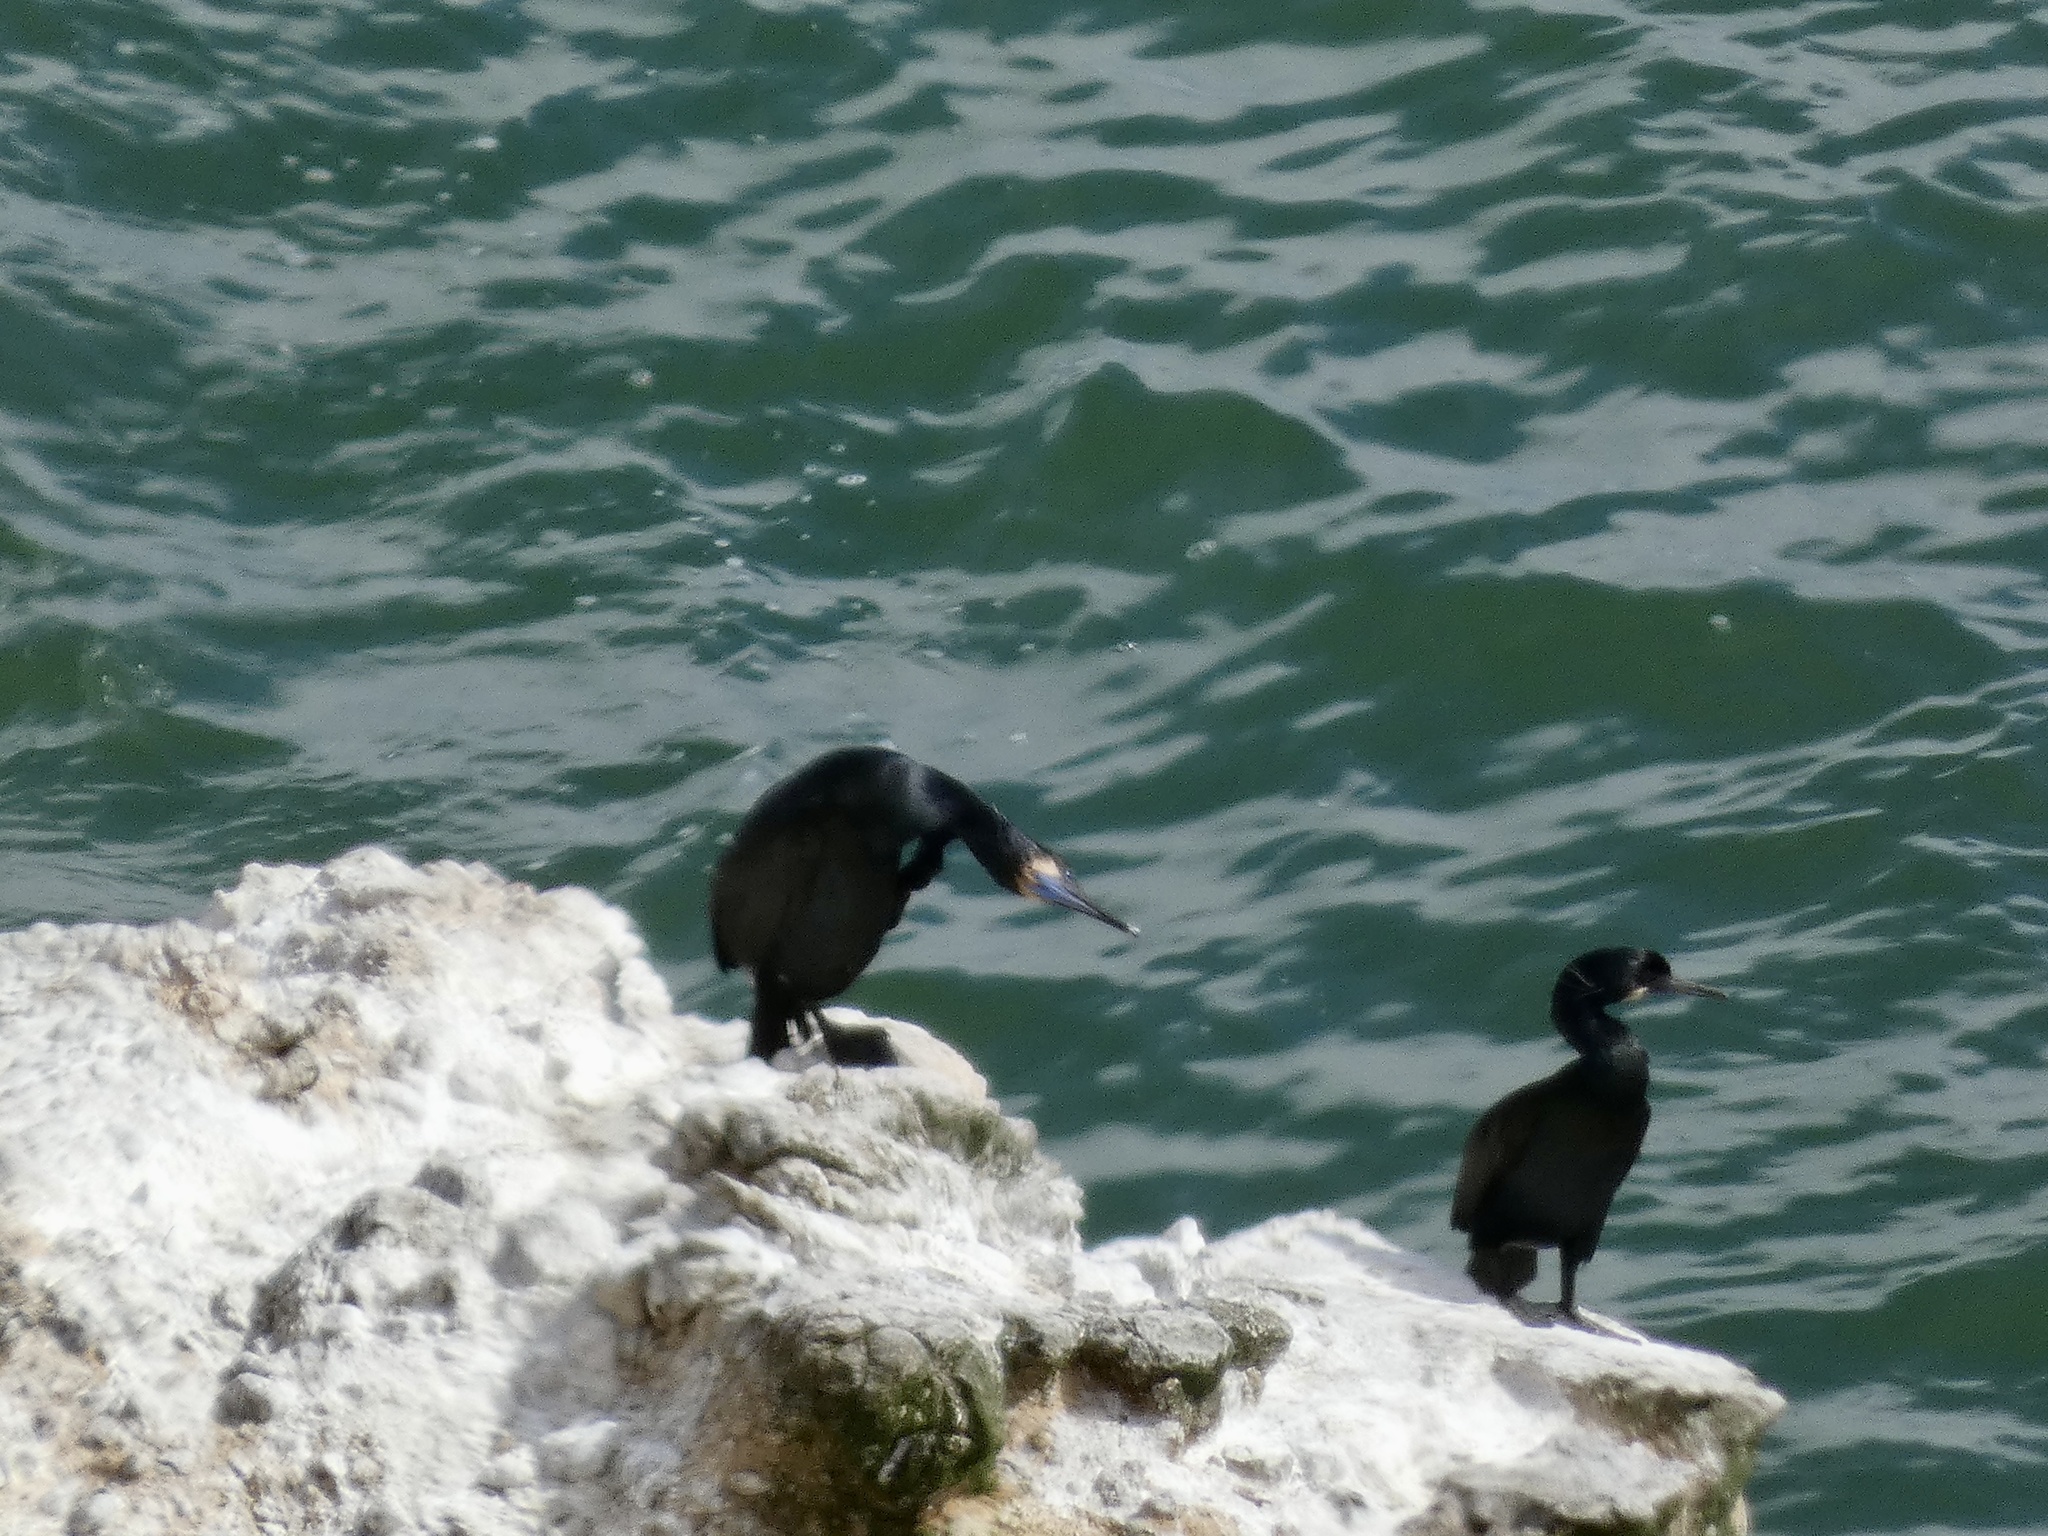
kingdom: Animalia
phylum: Chordata
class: Aves
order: Suliformes
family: Phalacrocoracidae
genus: Urile
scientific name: Urile penicillatus
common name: Brandt's cormorant
